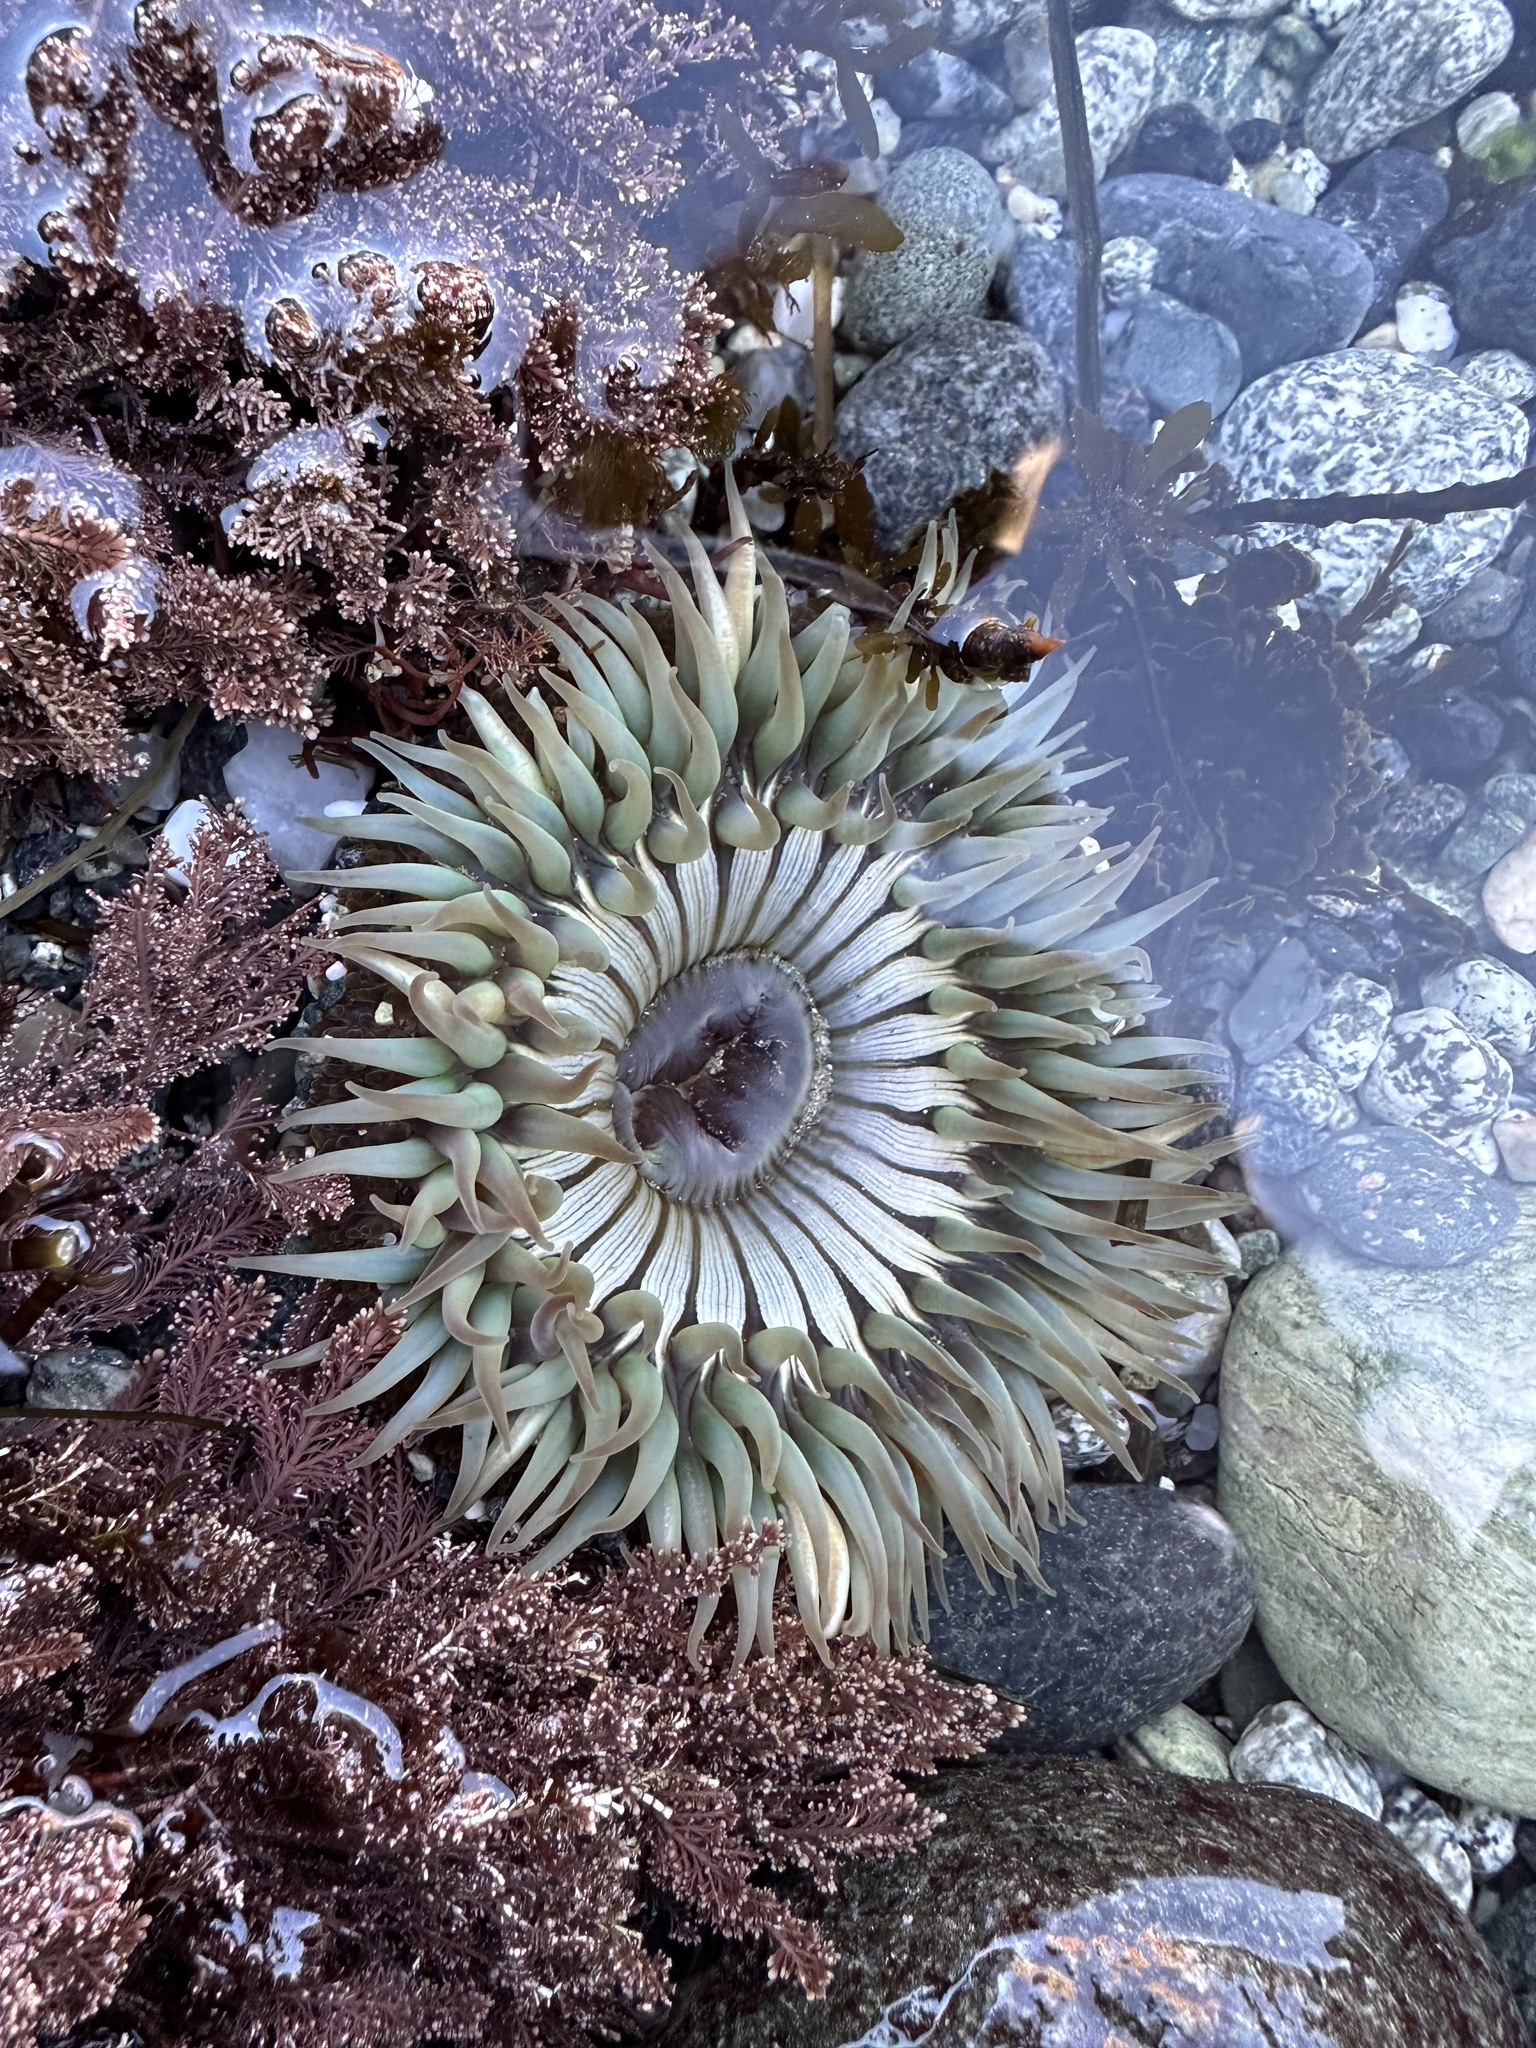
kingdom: Animalia
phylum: Cnidaria
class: Anthozoa
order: Actiniaria
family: Actiniidae
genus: Anthopleura
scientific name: Anthopleura sola
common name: Sun anemone
